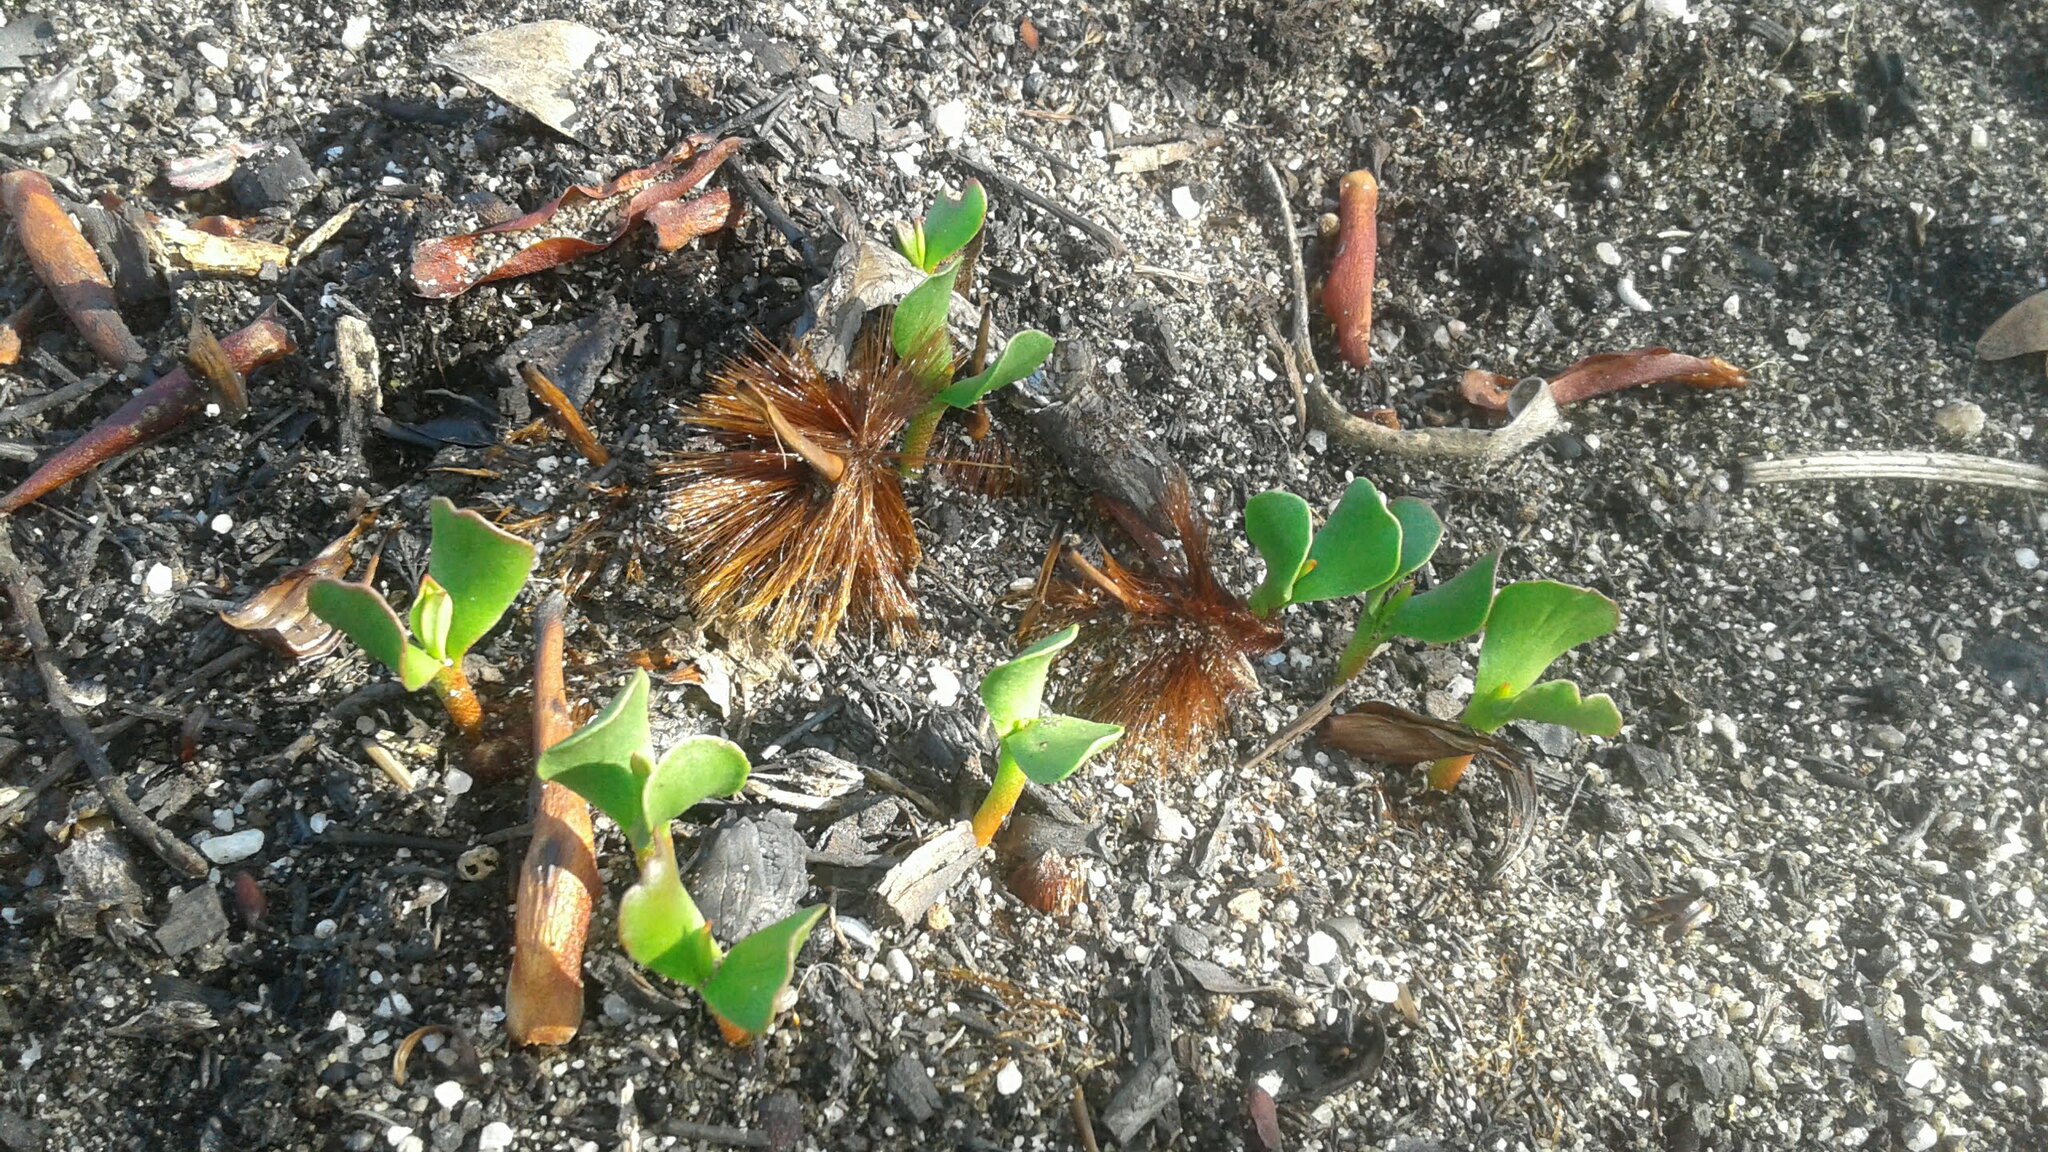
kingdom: Plantae
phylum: Tracheophyta
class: Magnoliopsida
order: Proteales
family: Proteaceae
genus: Protea
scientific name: Protea repens
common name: Sugarbush
